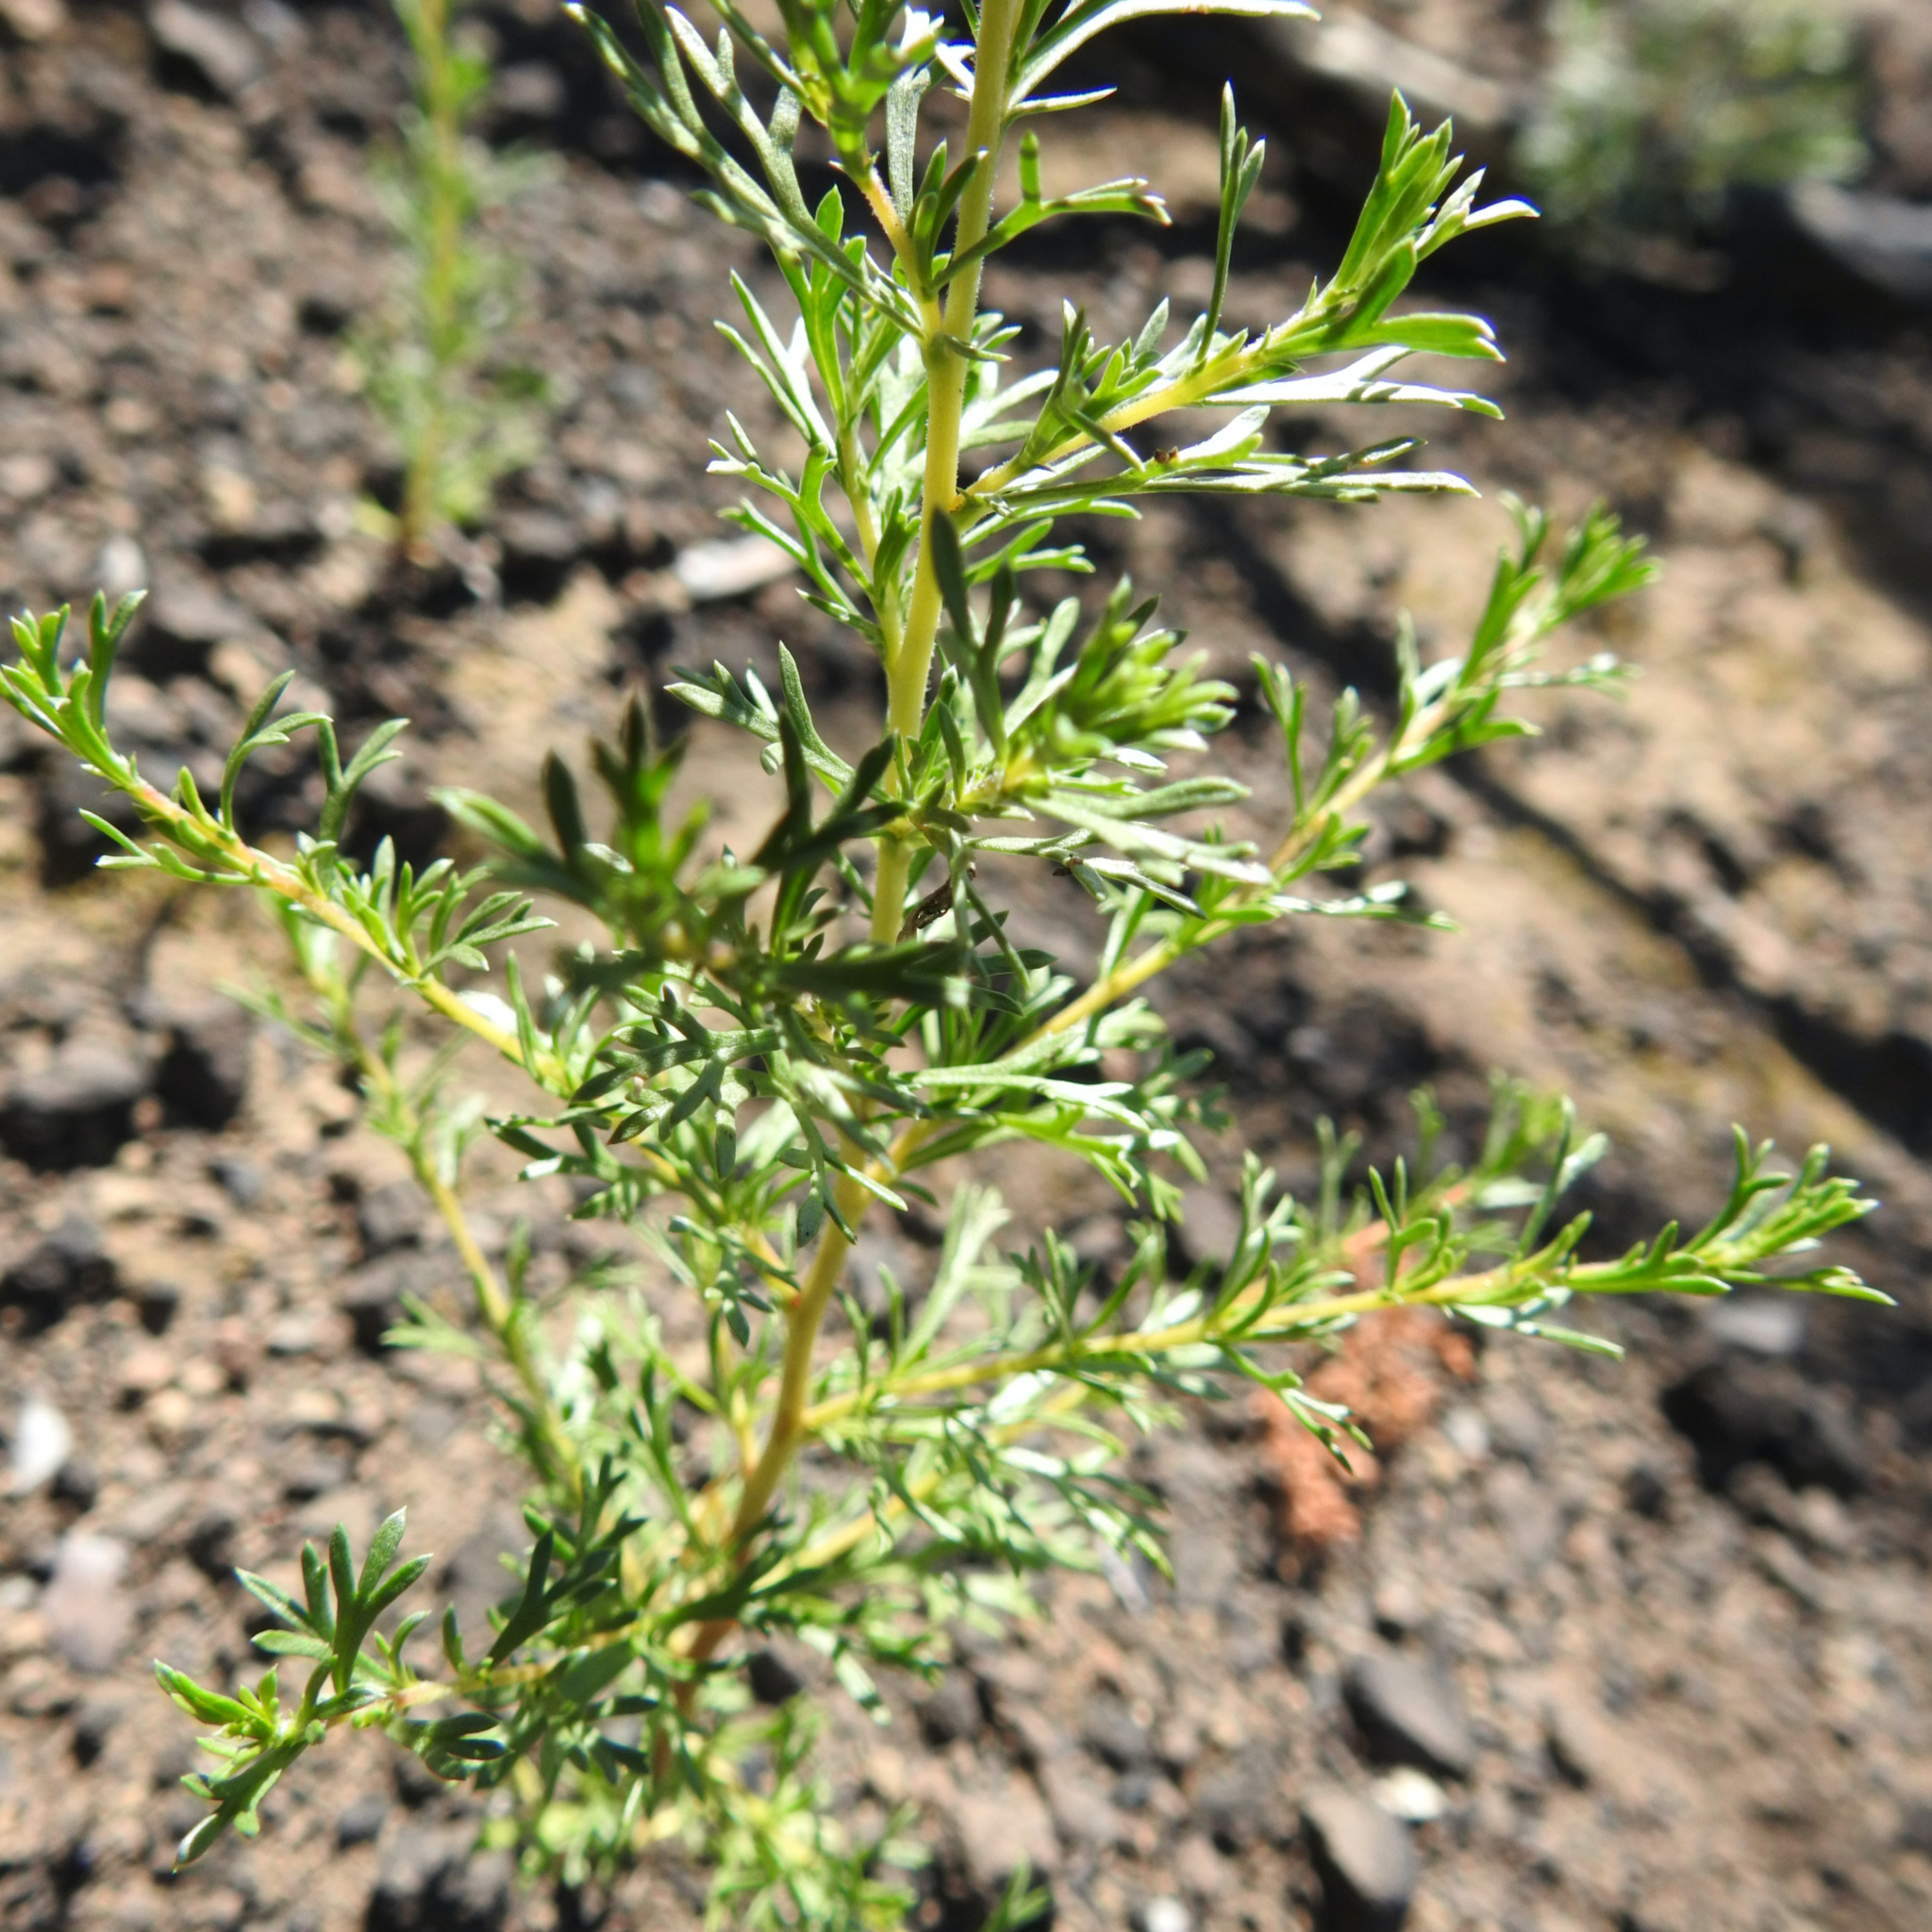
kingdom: Plantae
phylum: Tracheophyta
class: Magnoliopsida
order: Rosales
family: Rosaceae
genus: Adenostoma
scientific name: Adenostoma fasciculatum
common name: Chamise
